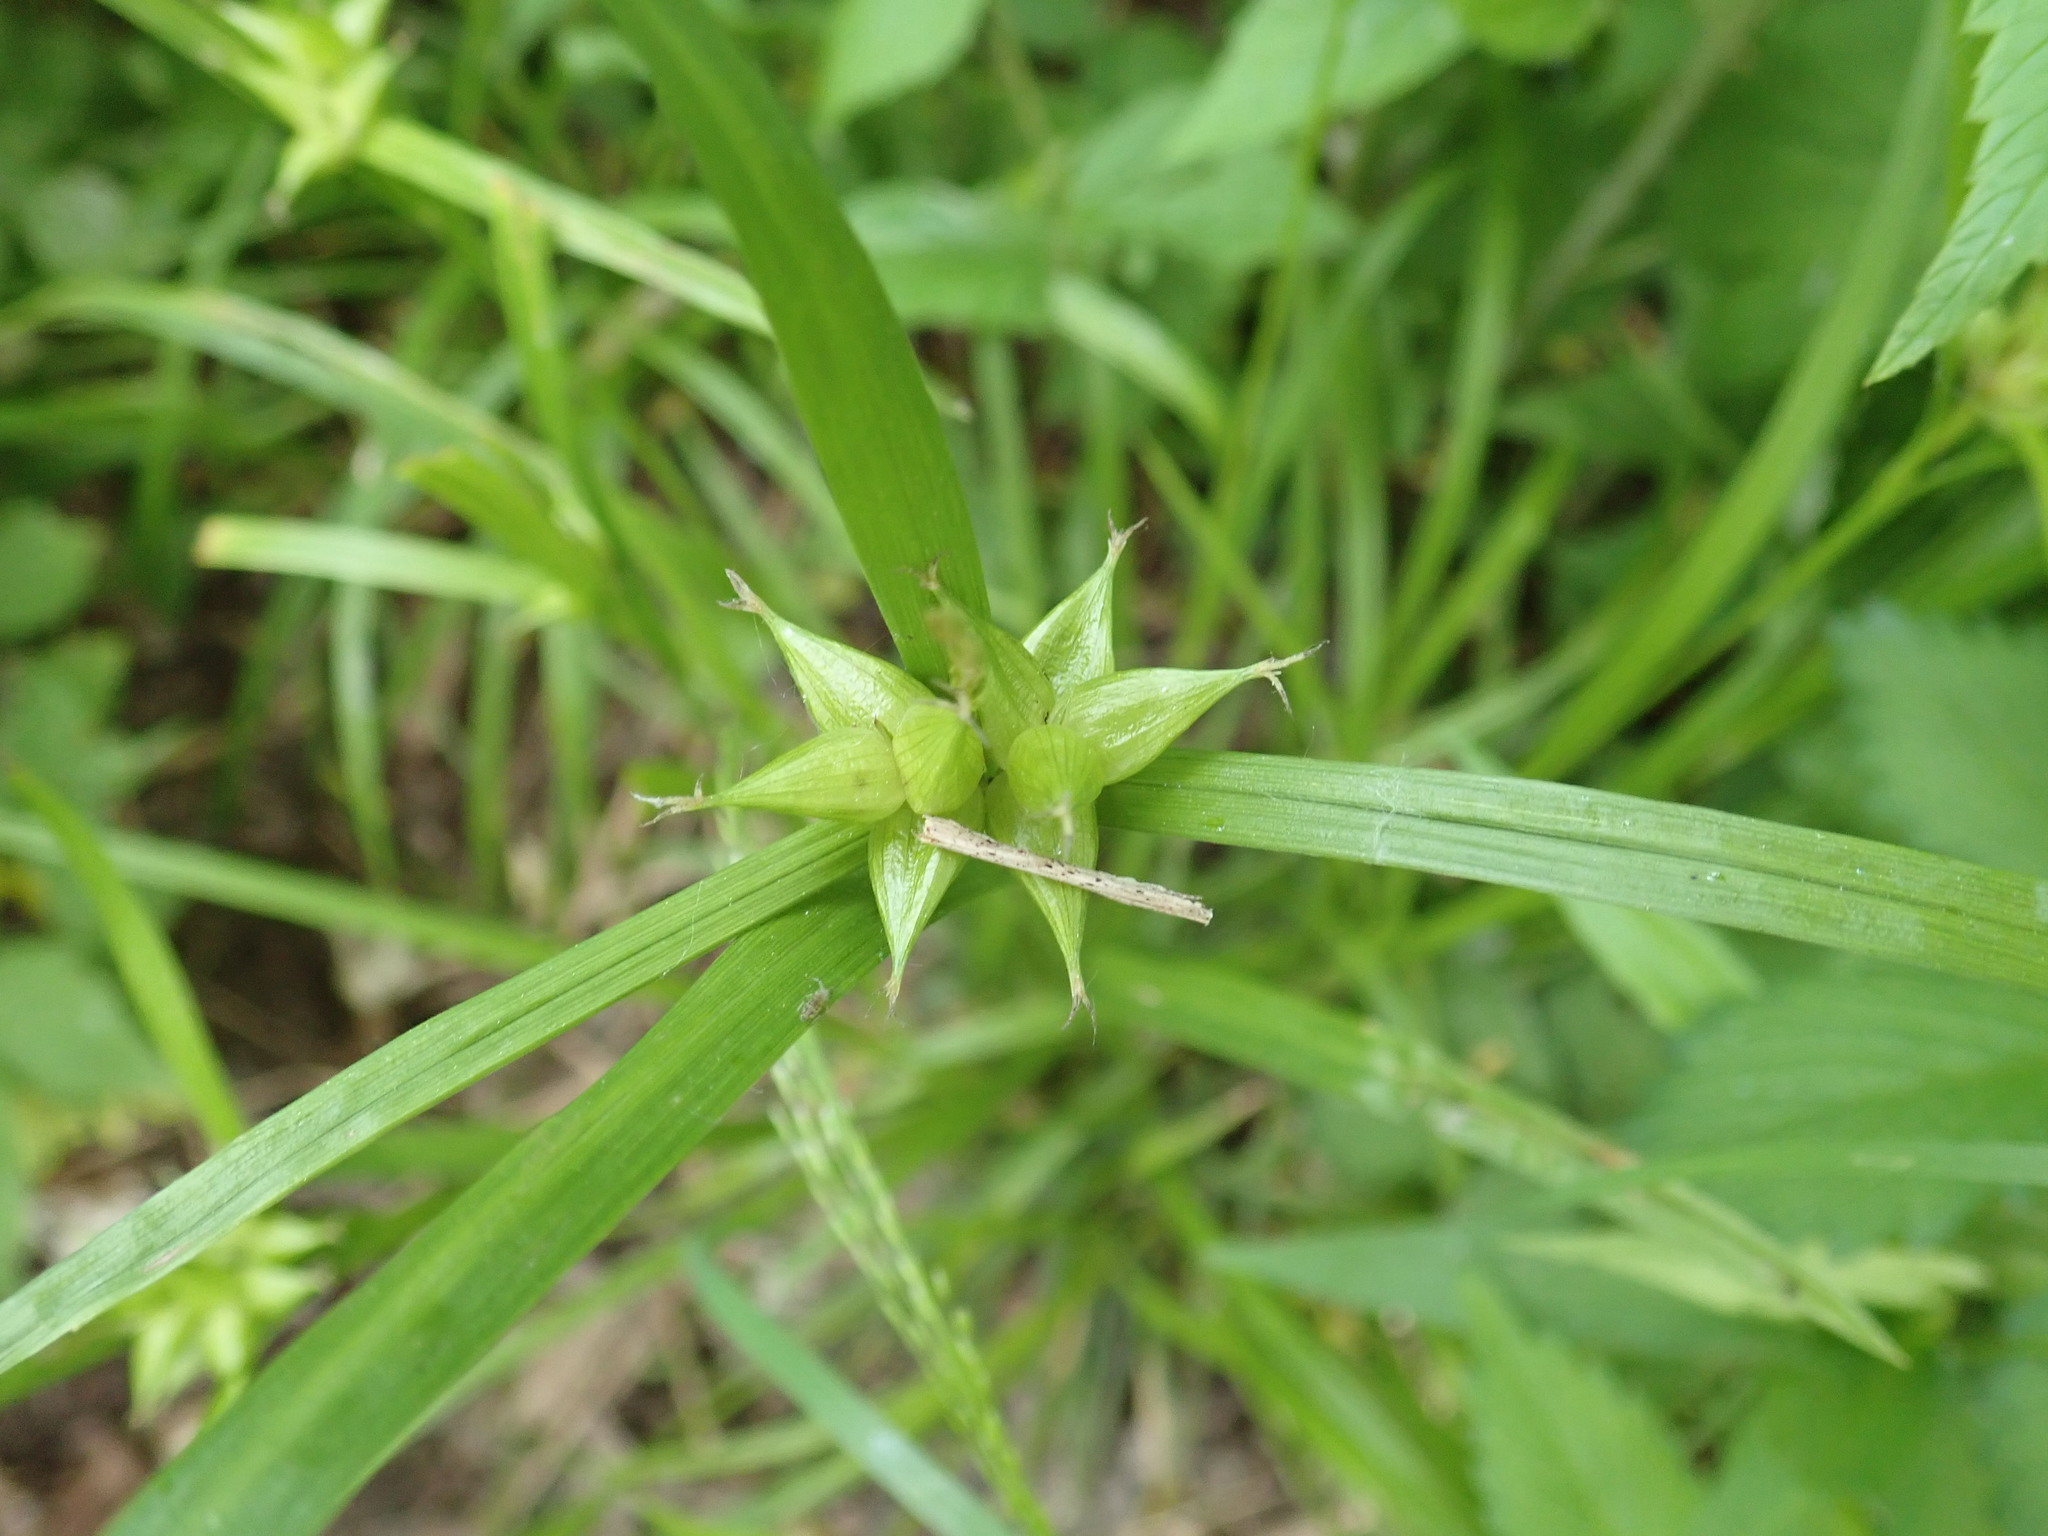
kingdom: Plantae
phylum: Tracheophyta
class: Liliopsida
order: Poales
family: Cyperaceae
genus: Carex
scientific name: Carex intumescens
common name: Greater bladder sedge
